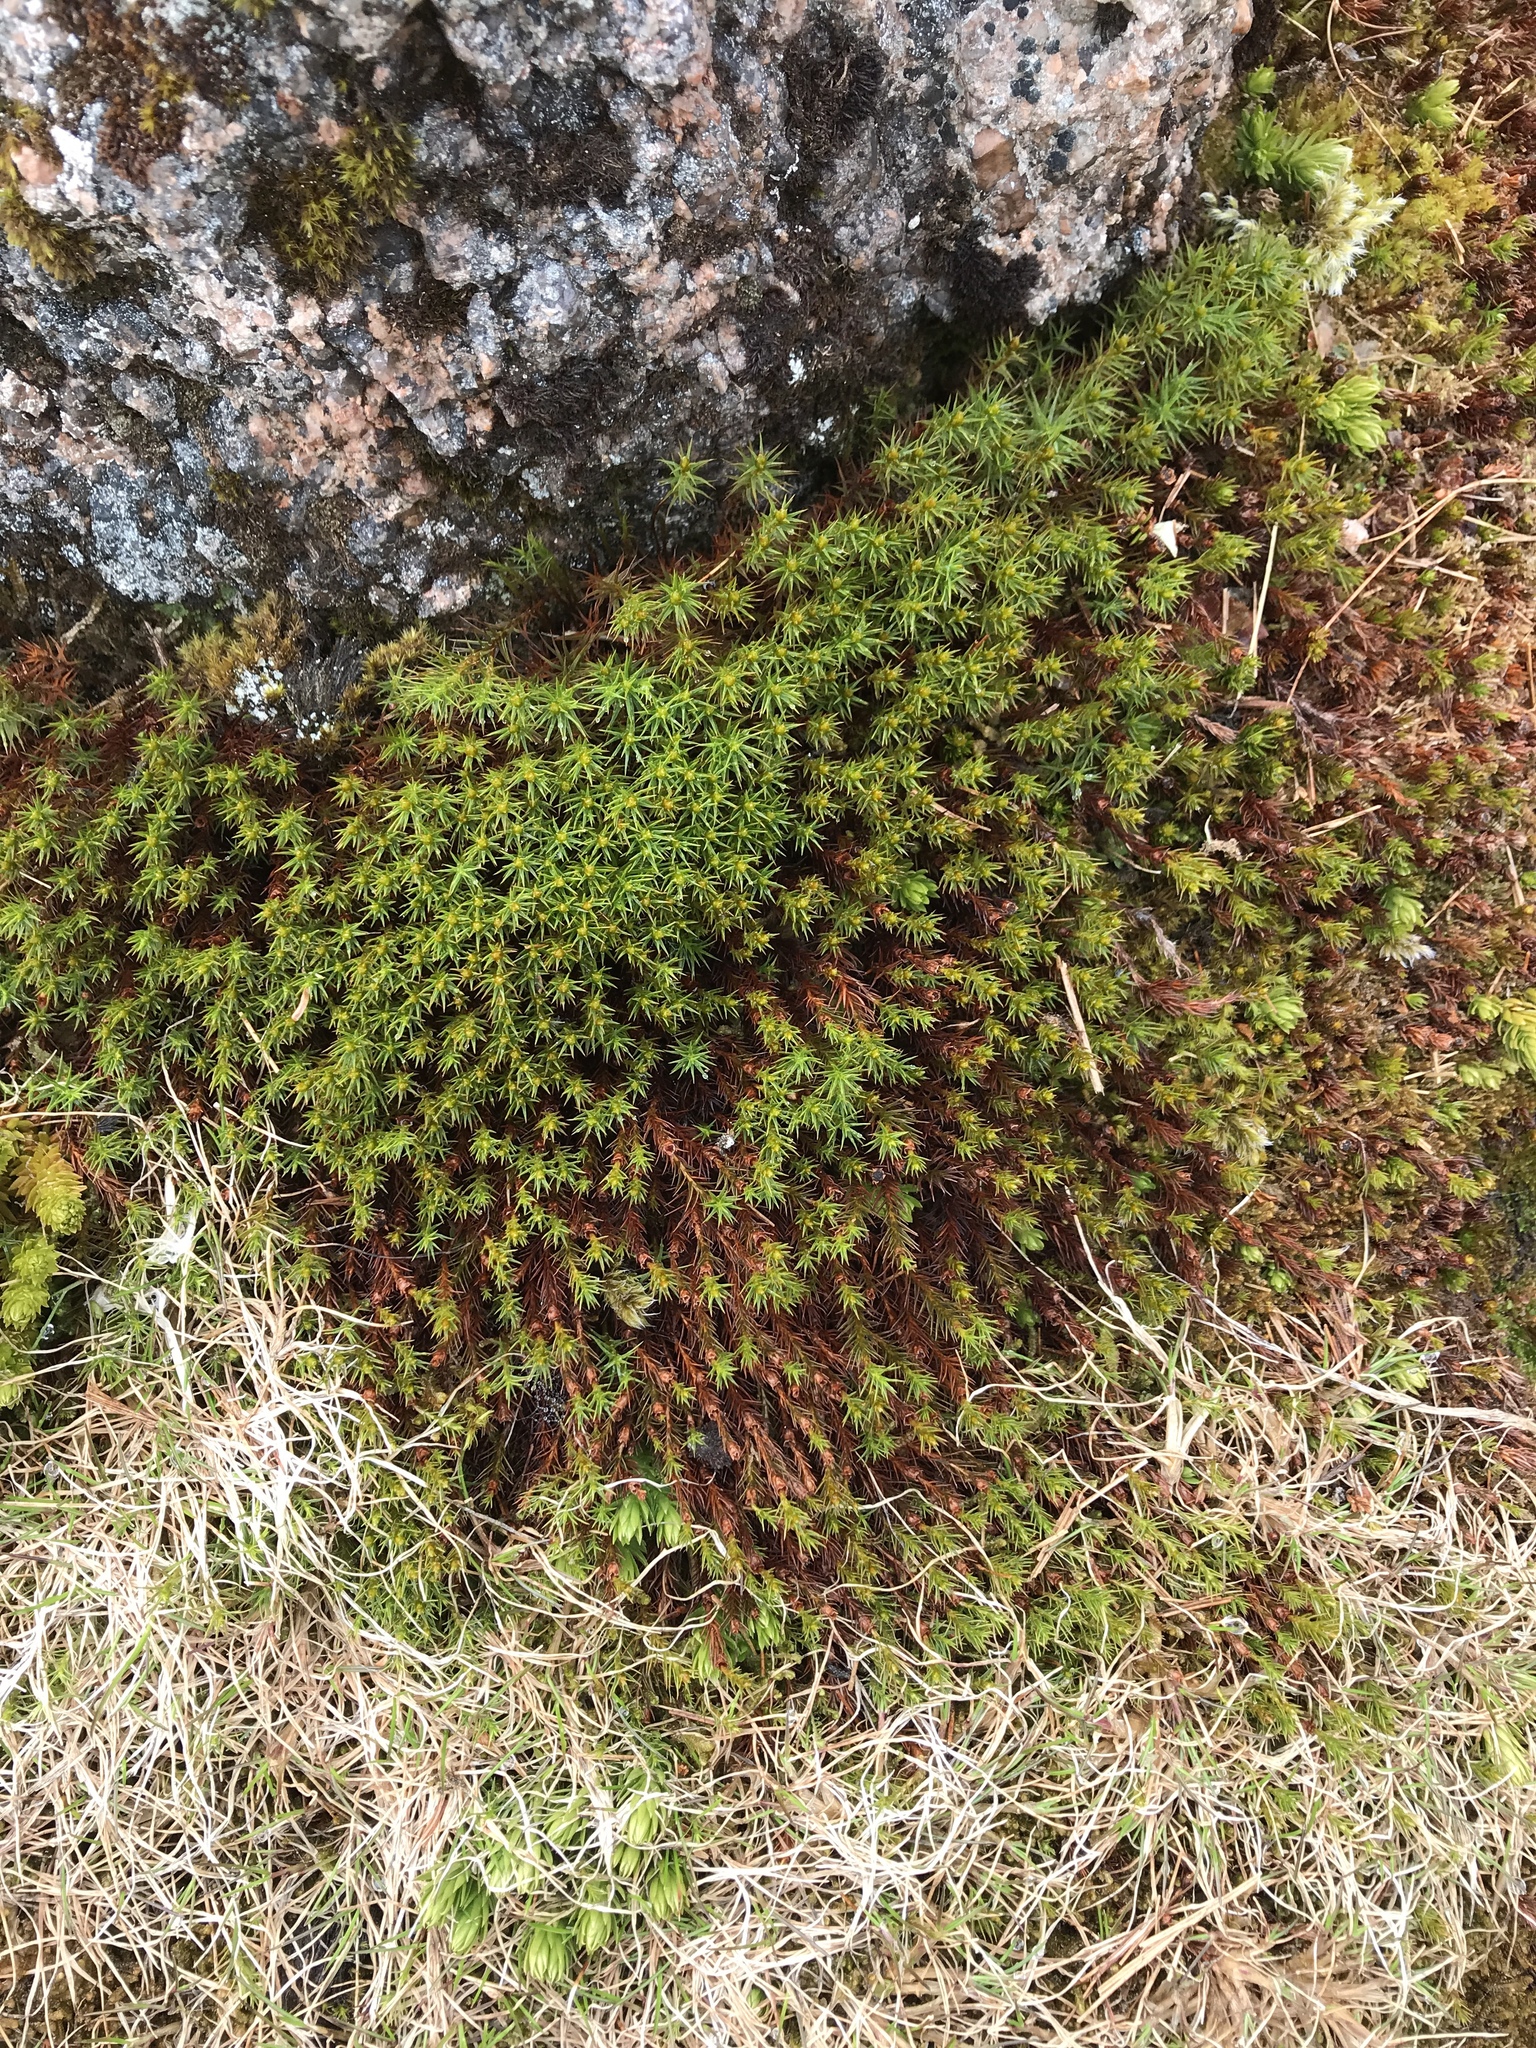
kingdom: Plantae
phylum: Bryophyta
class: Polytrichopsida
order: Polytrichales
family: Polytrichaceae
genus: Polytrichastrum
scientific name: Polytrichastrum alpinum
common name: Alpine haircap
